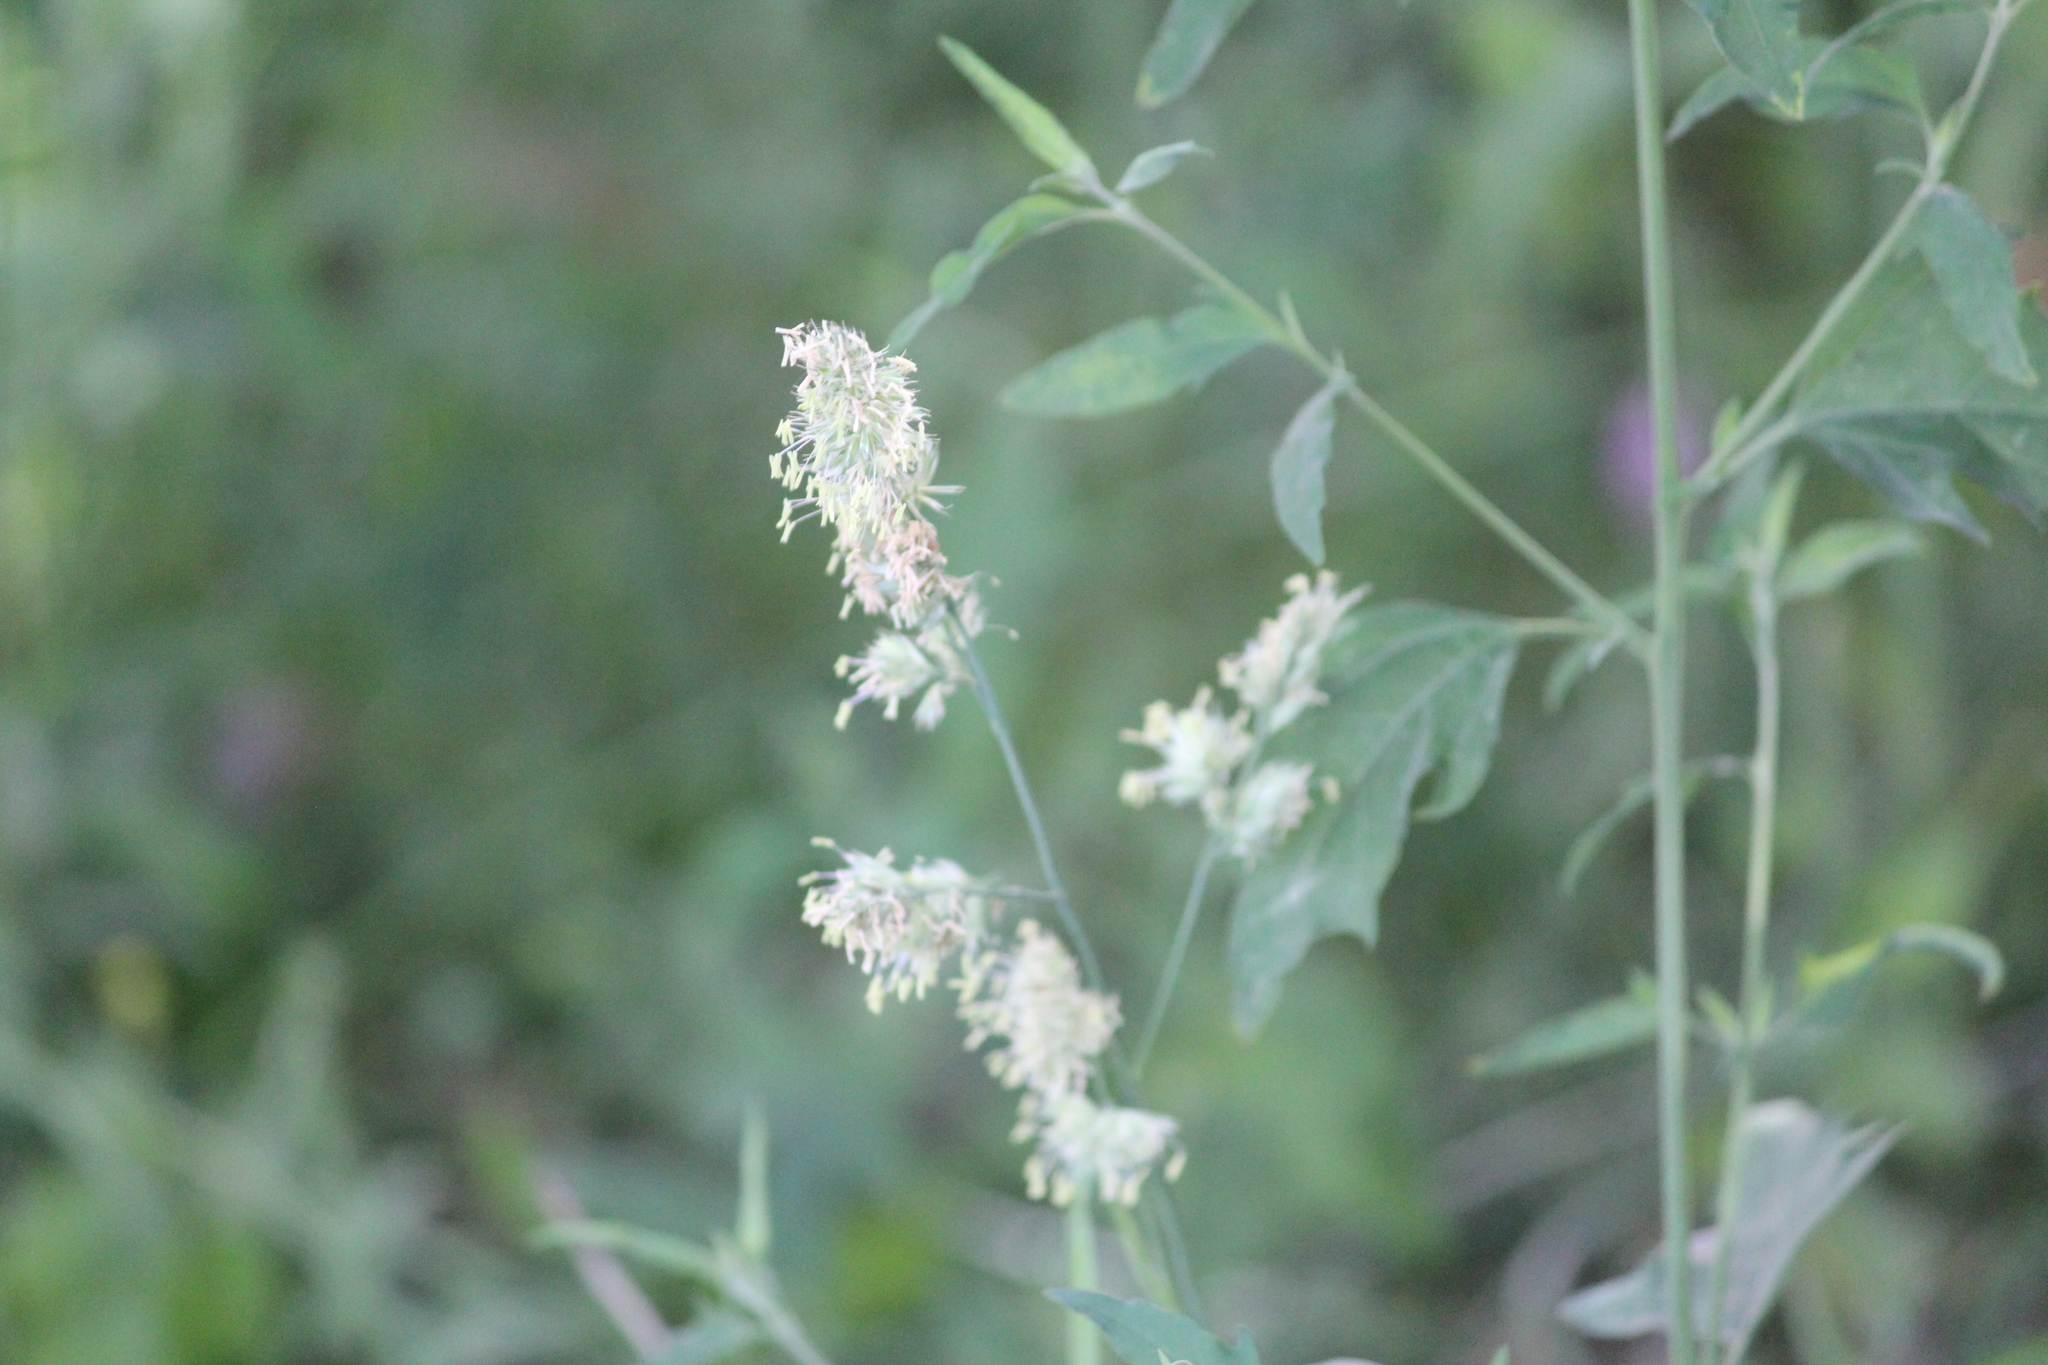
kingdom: Plantae
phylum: Tracheophyta
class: Liliopsida
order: Poales
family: Poaceae
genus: Dactylis
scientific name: Dactylis glomerata
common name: Orchardgrass
